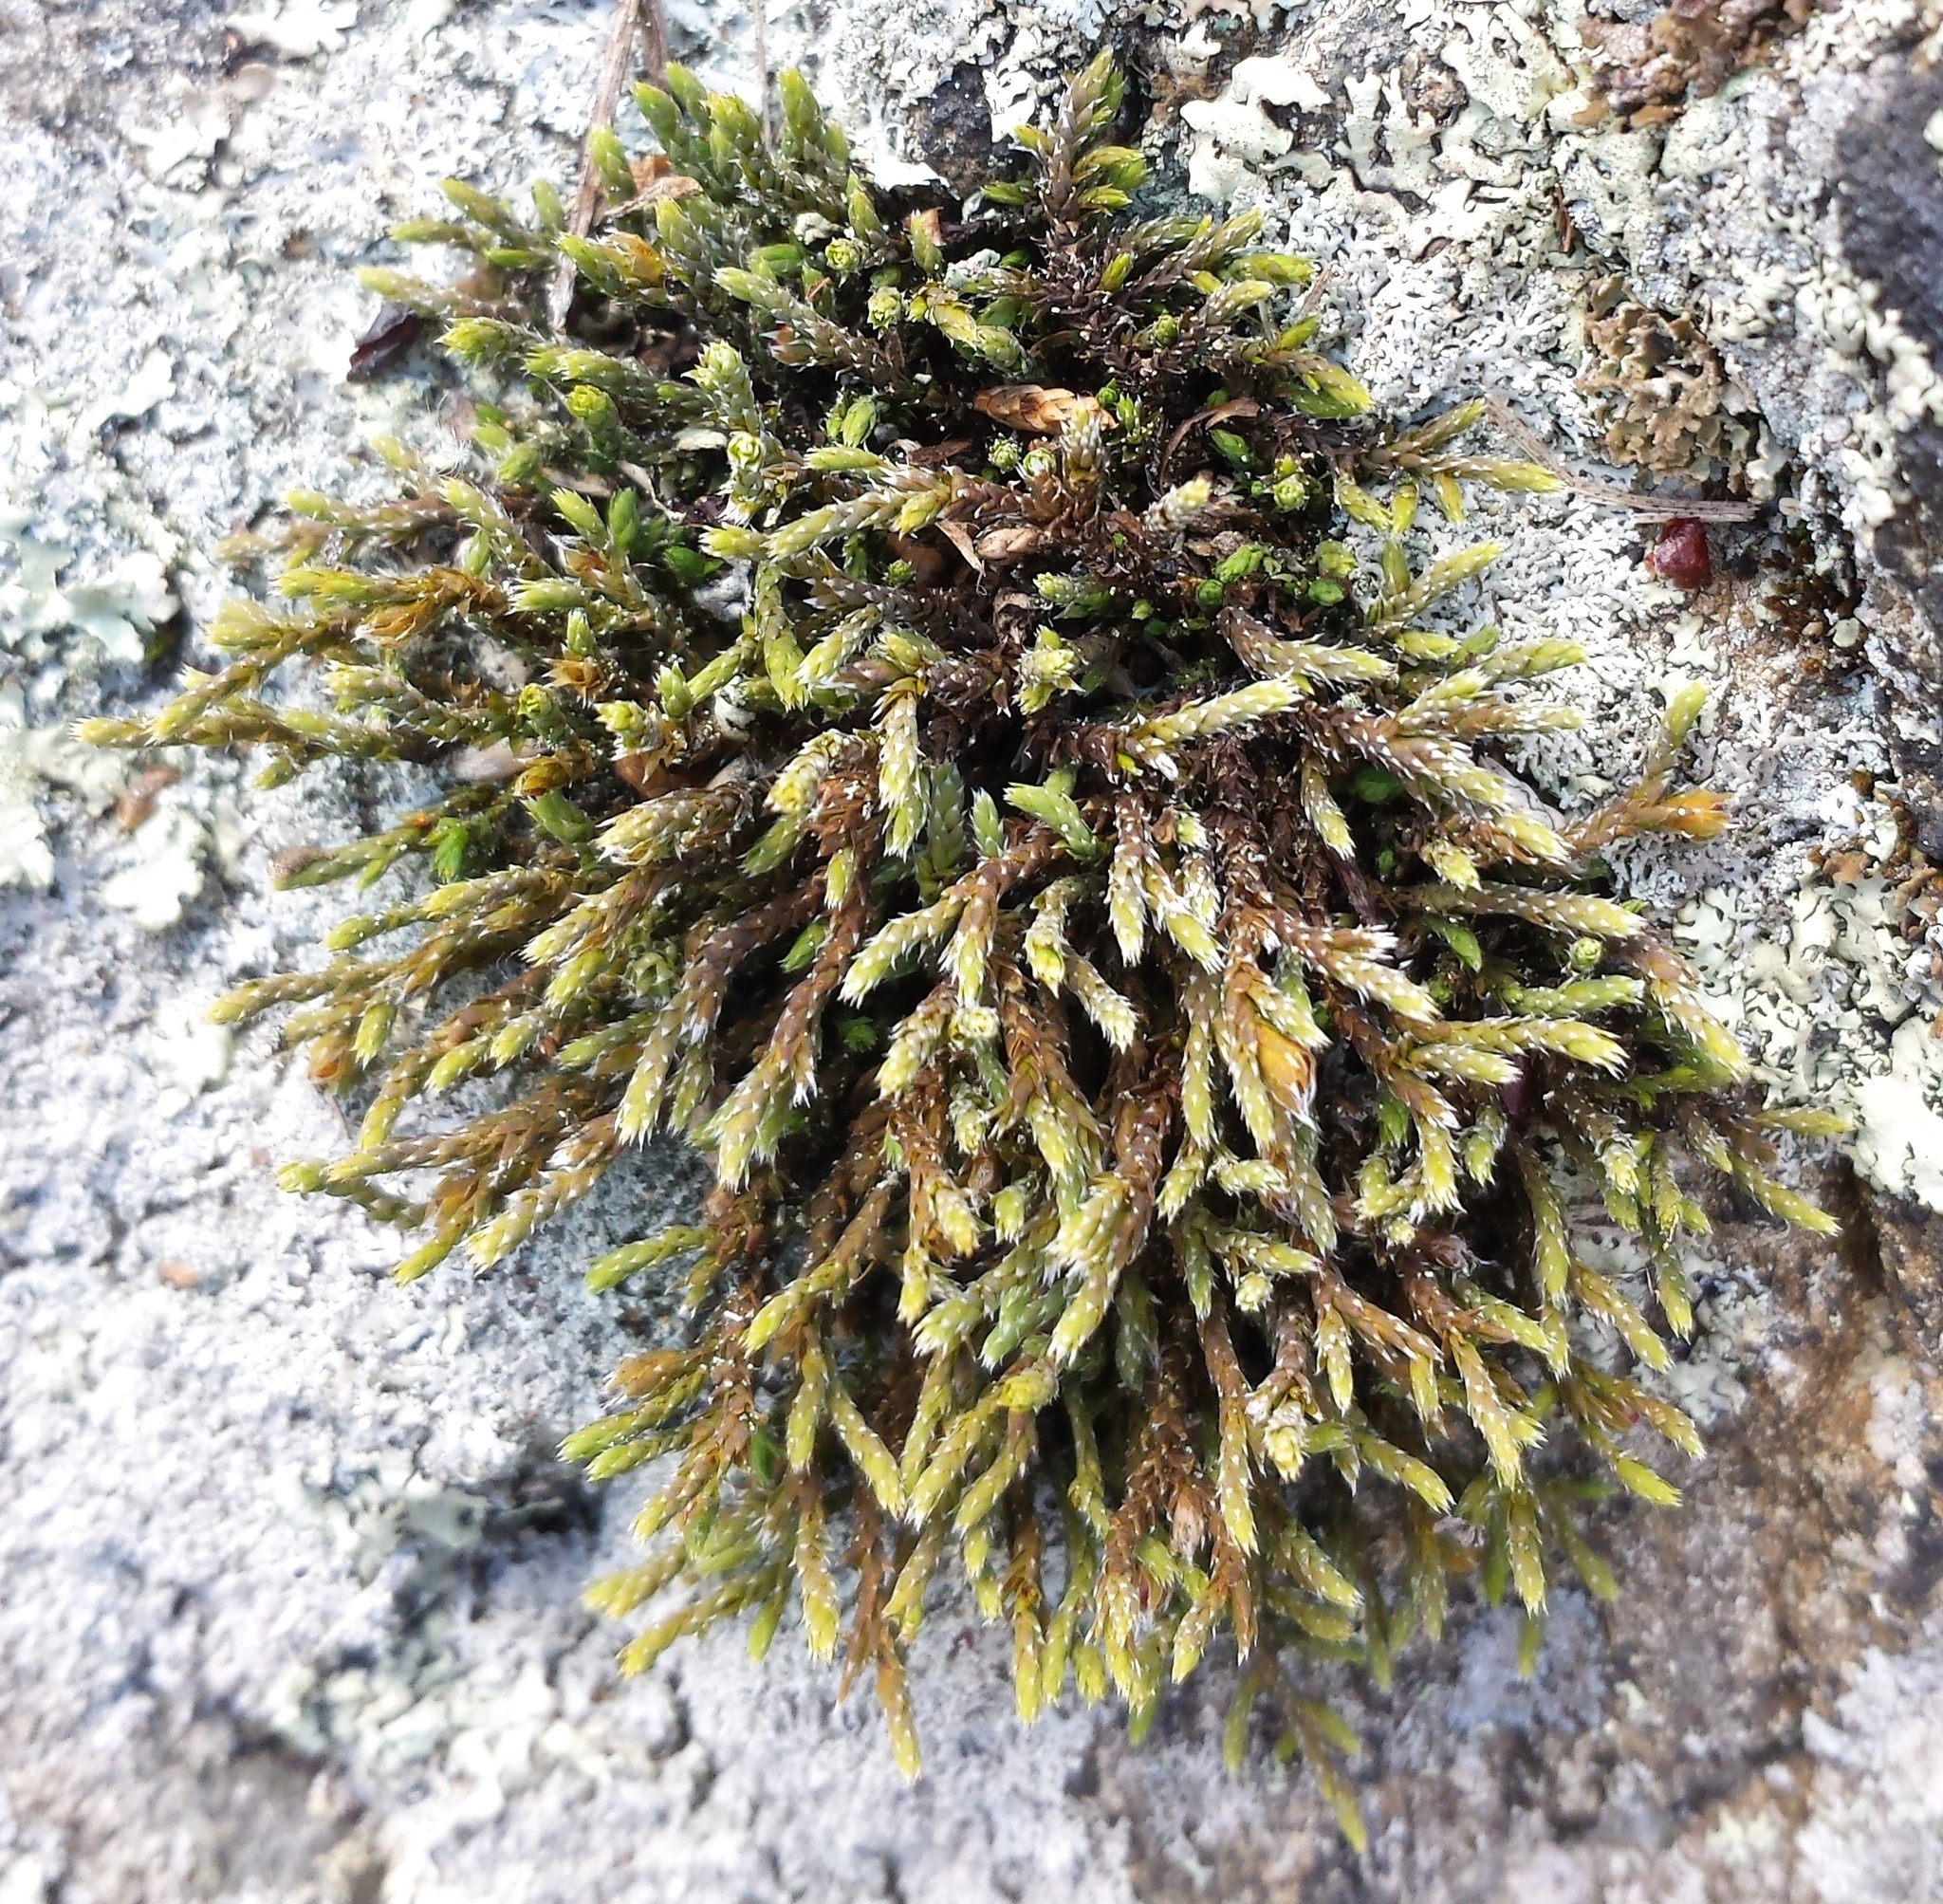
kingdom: Plantae
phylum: Bryophyta
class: Bryopsida
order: Hedwigiales
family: Hedwigiaceae
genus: Hedwigia
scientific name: Hedwigia ciliata
